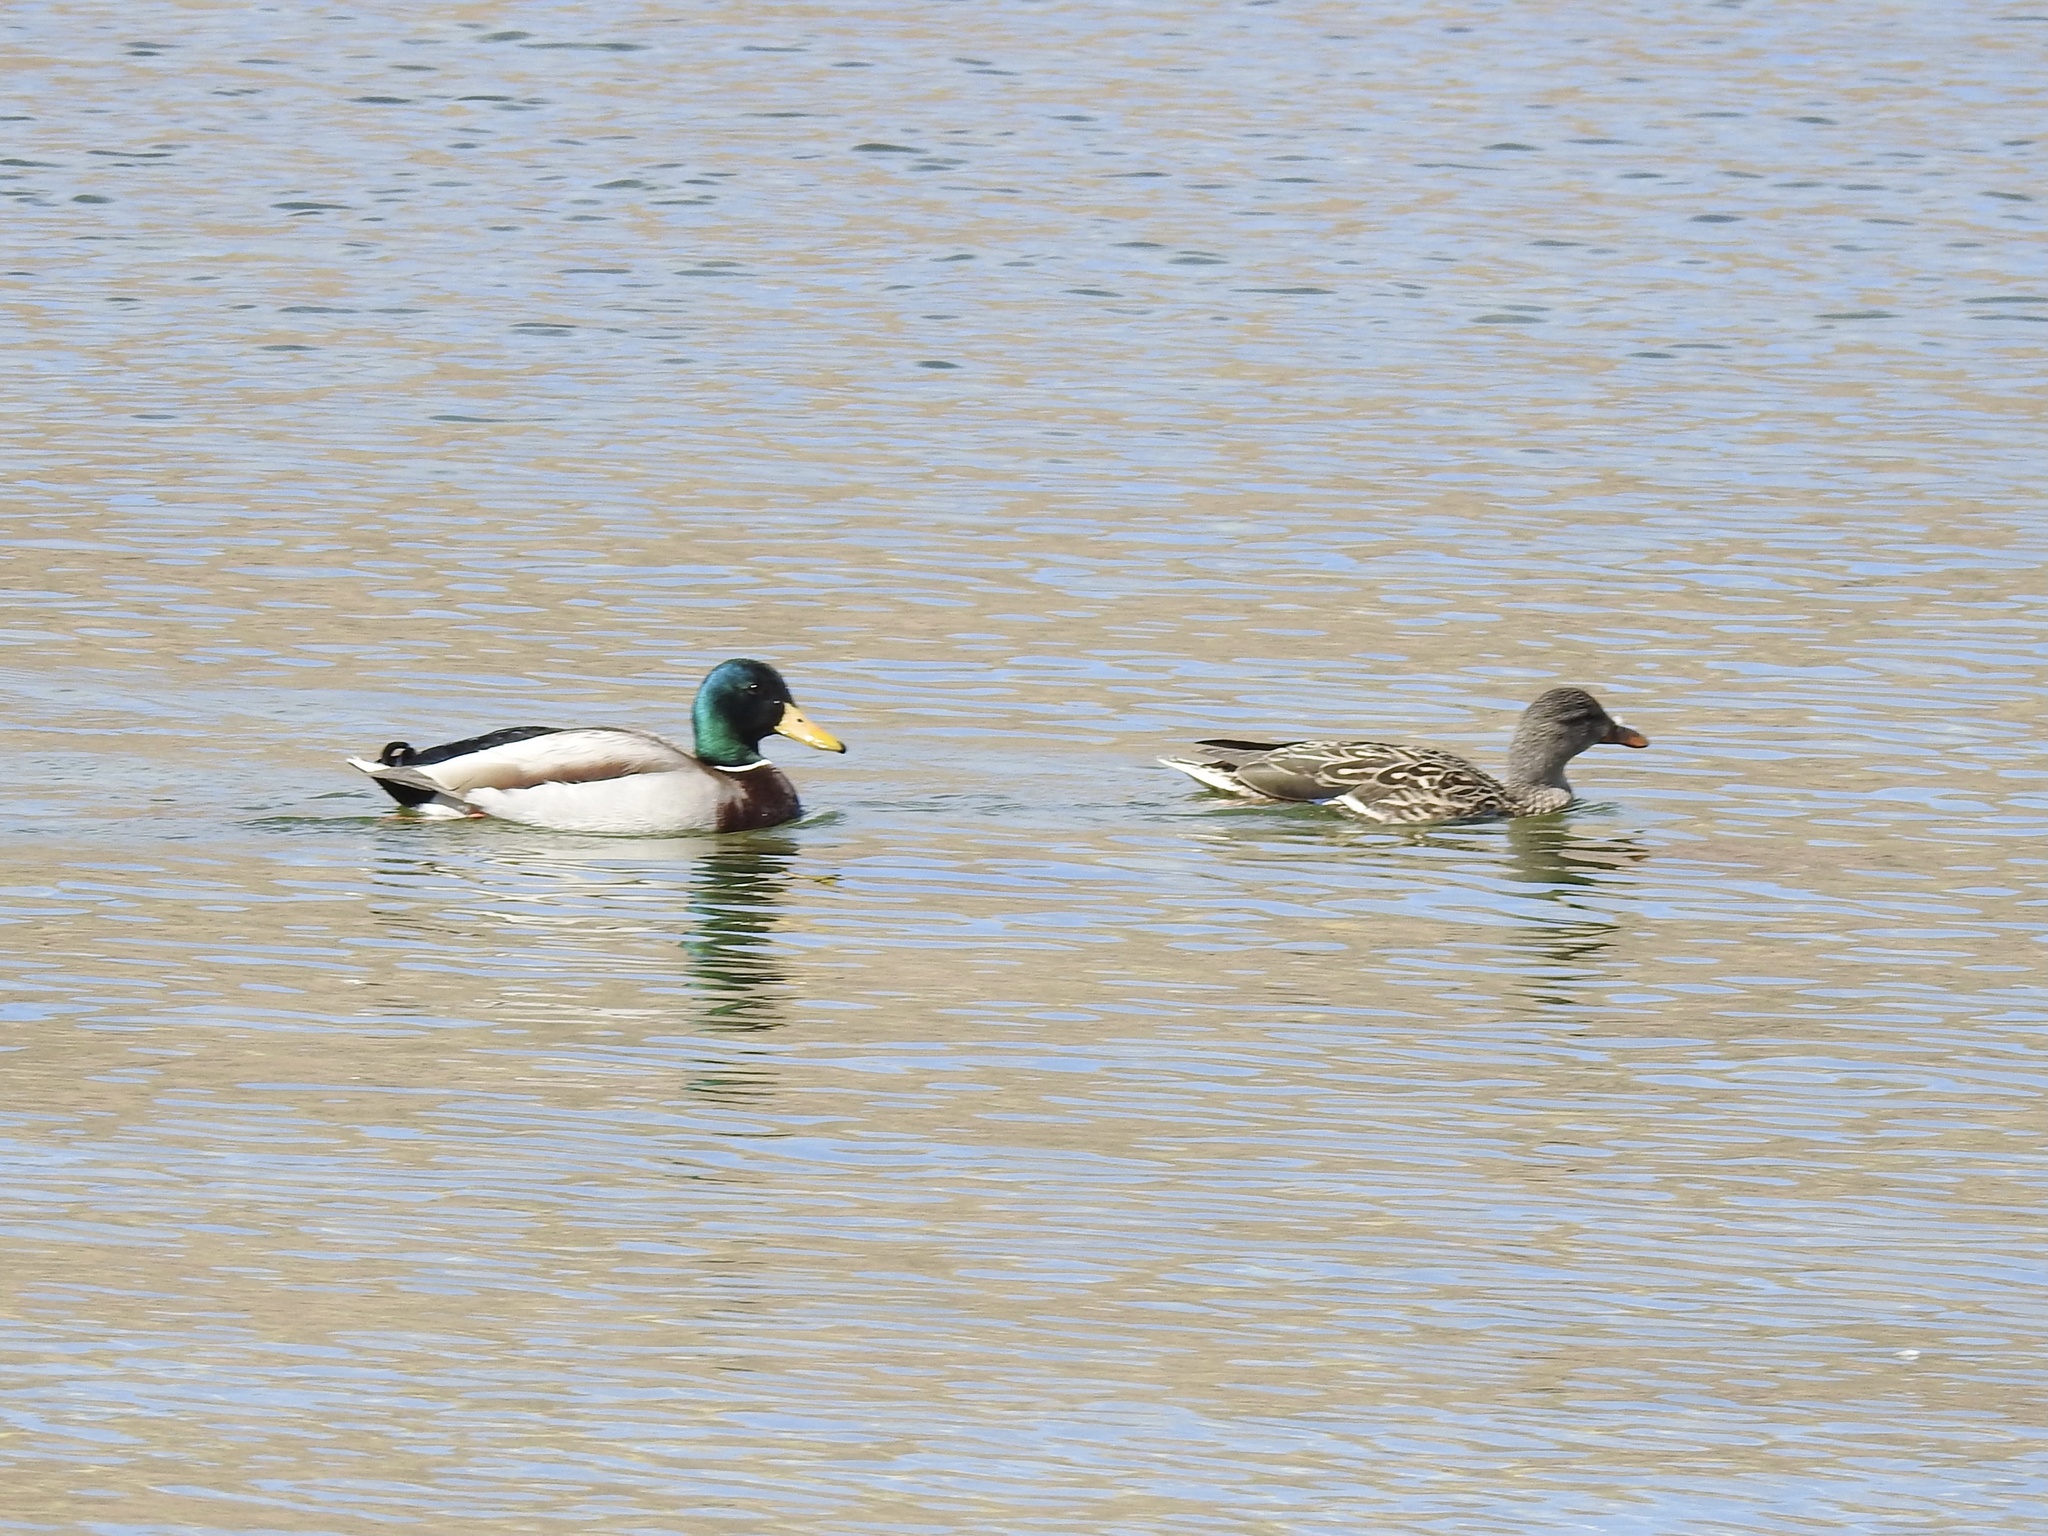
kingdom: Animalia
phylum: Chordata
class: Aves
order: Anseriformes
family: Anatidae
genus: Anas
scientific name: Anas platyrhynchos
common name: Mallard
